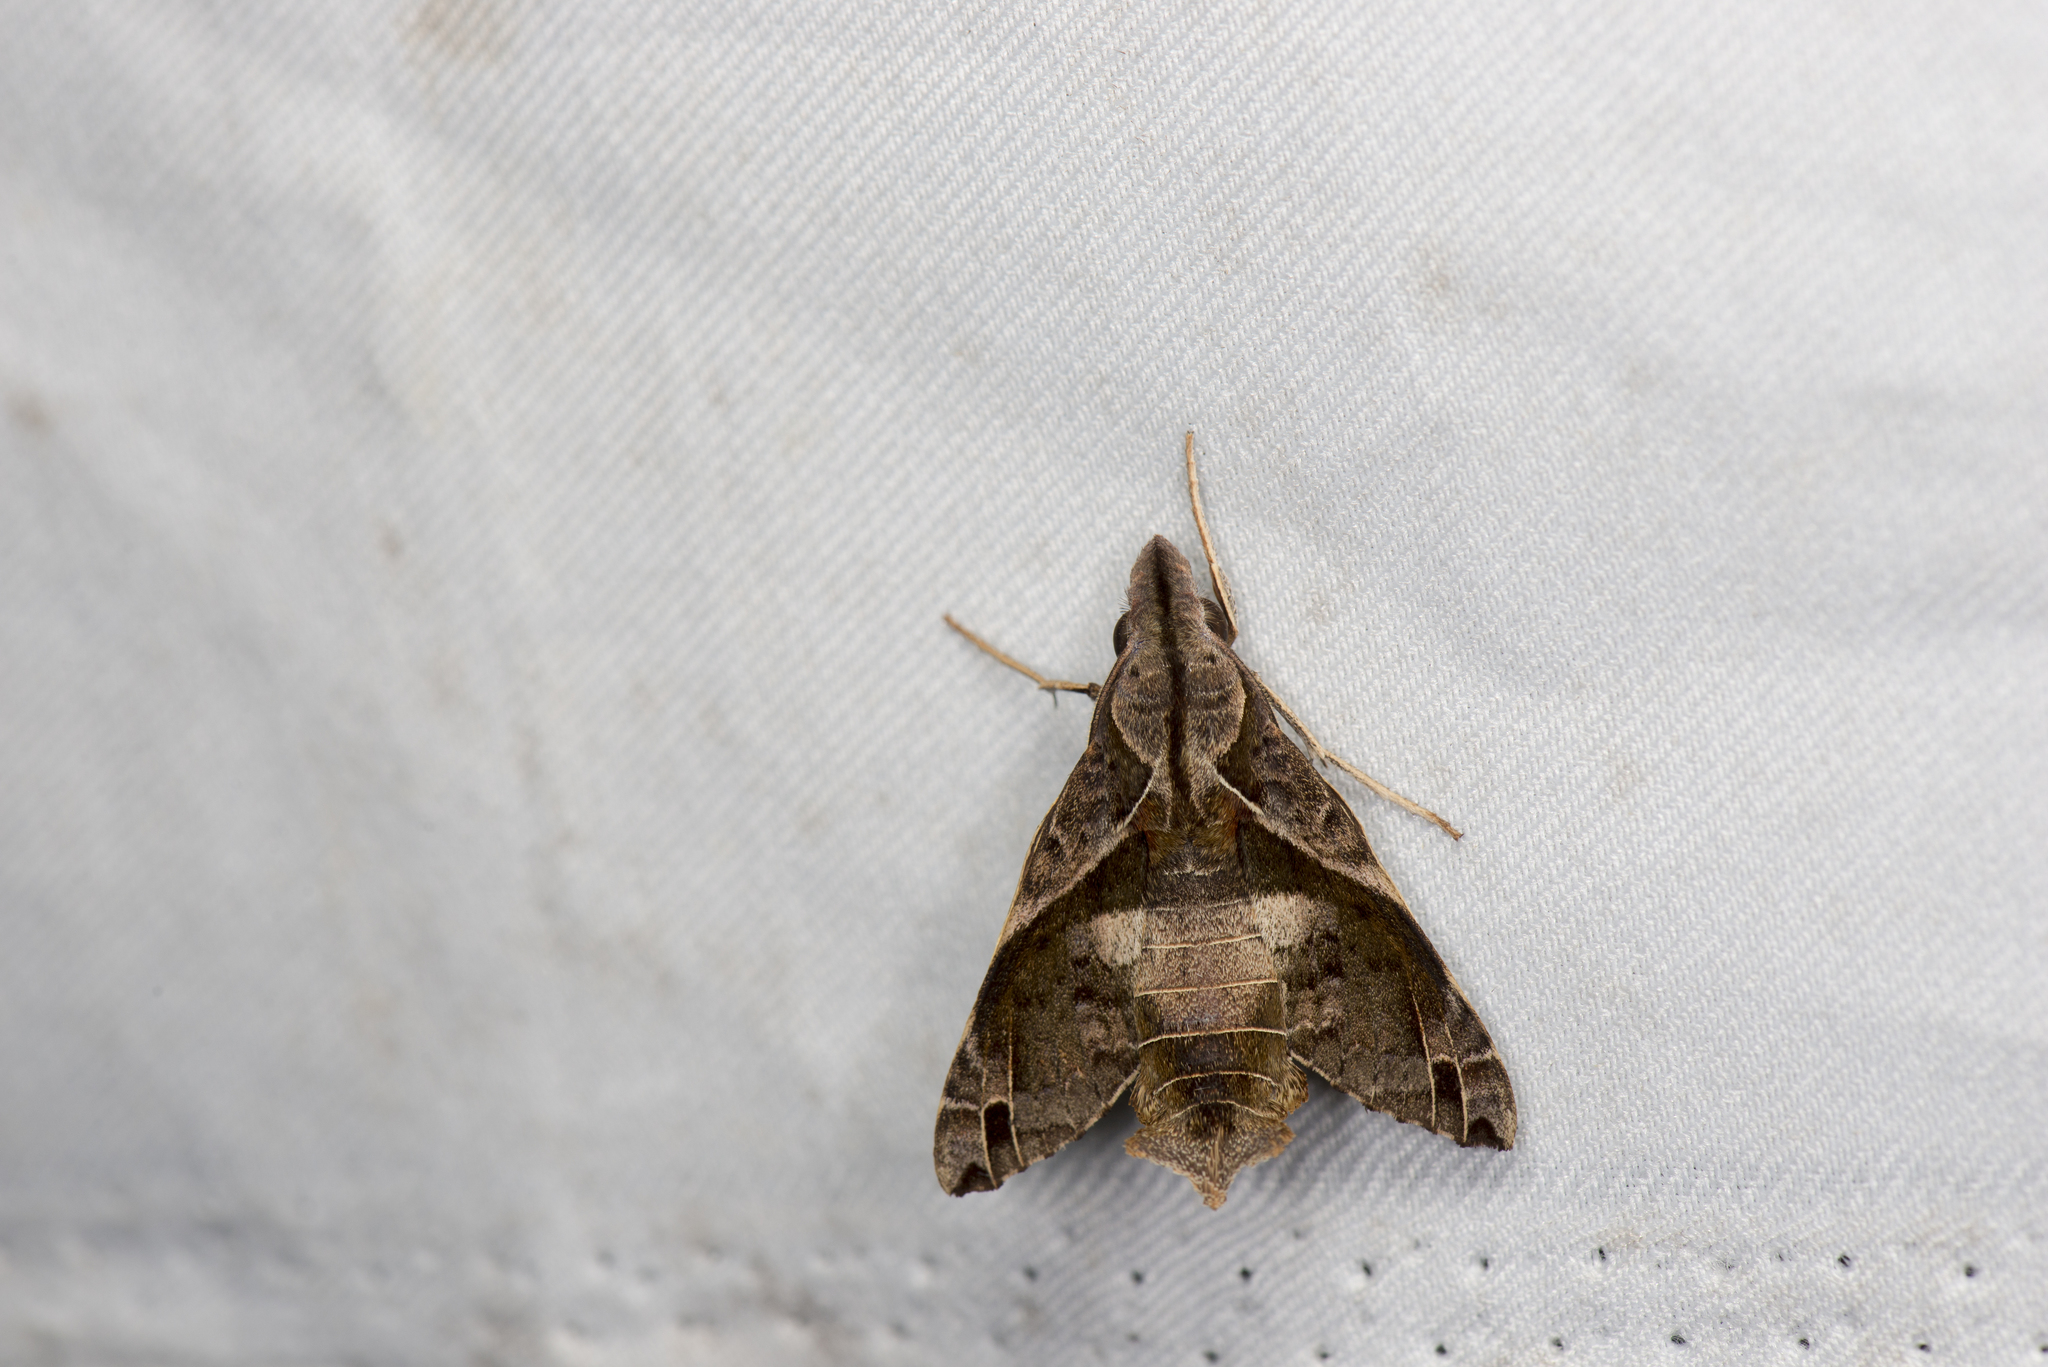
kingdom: Animalia
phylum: Arthropoda
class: Insecta
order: Lepidoptera
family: Sphingidae
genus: Macroglossum
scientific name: Macroglossum fritzei
